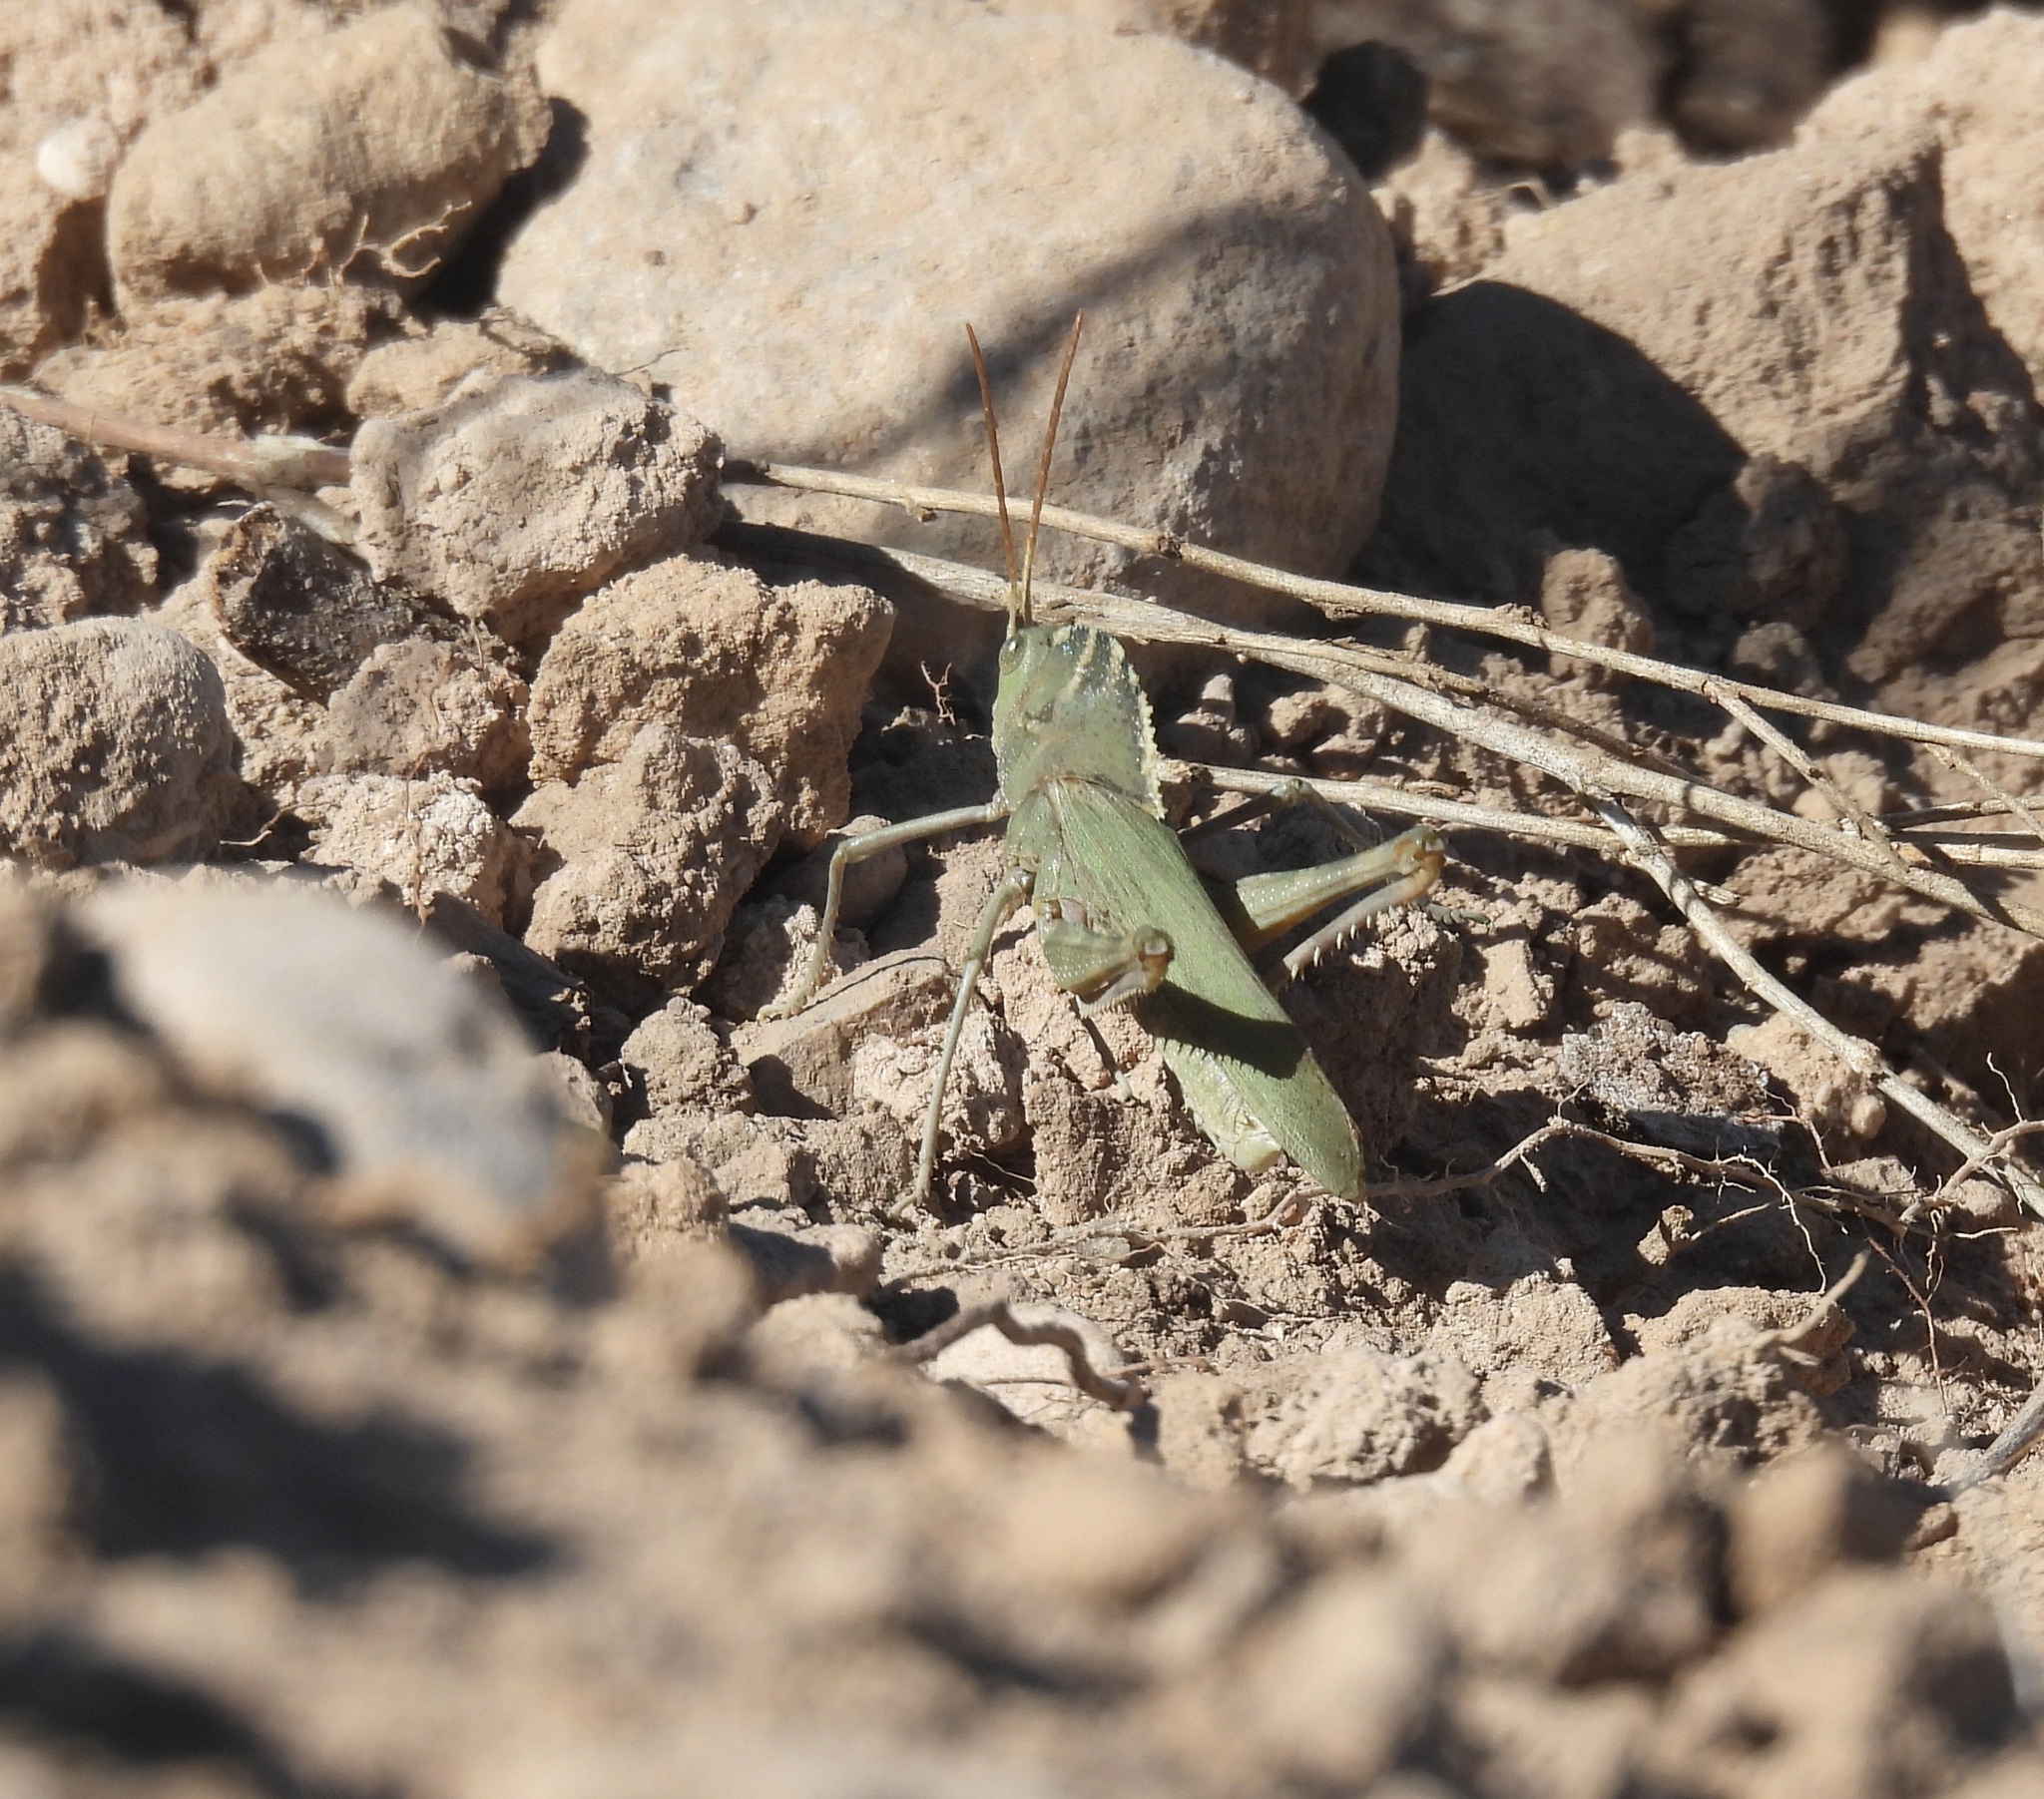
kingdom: Animalia
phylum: Arthropoda
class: Insecta
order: Orthoptera
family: Acrididae
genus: Tropidolophus
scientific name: Tropidolophus formosus
